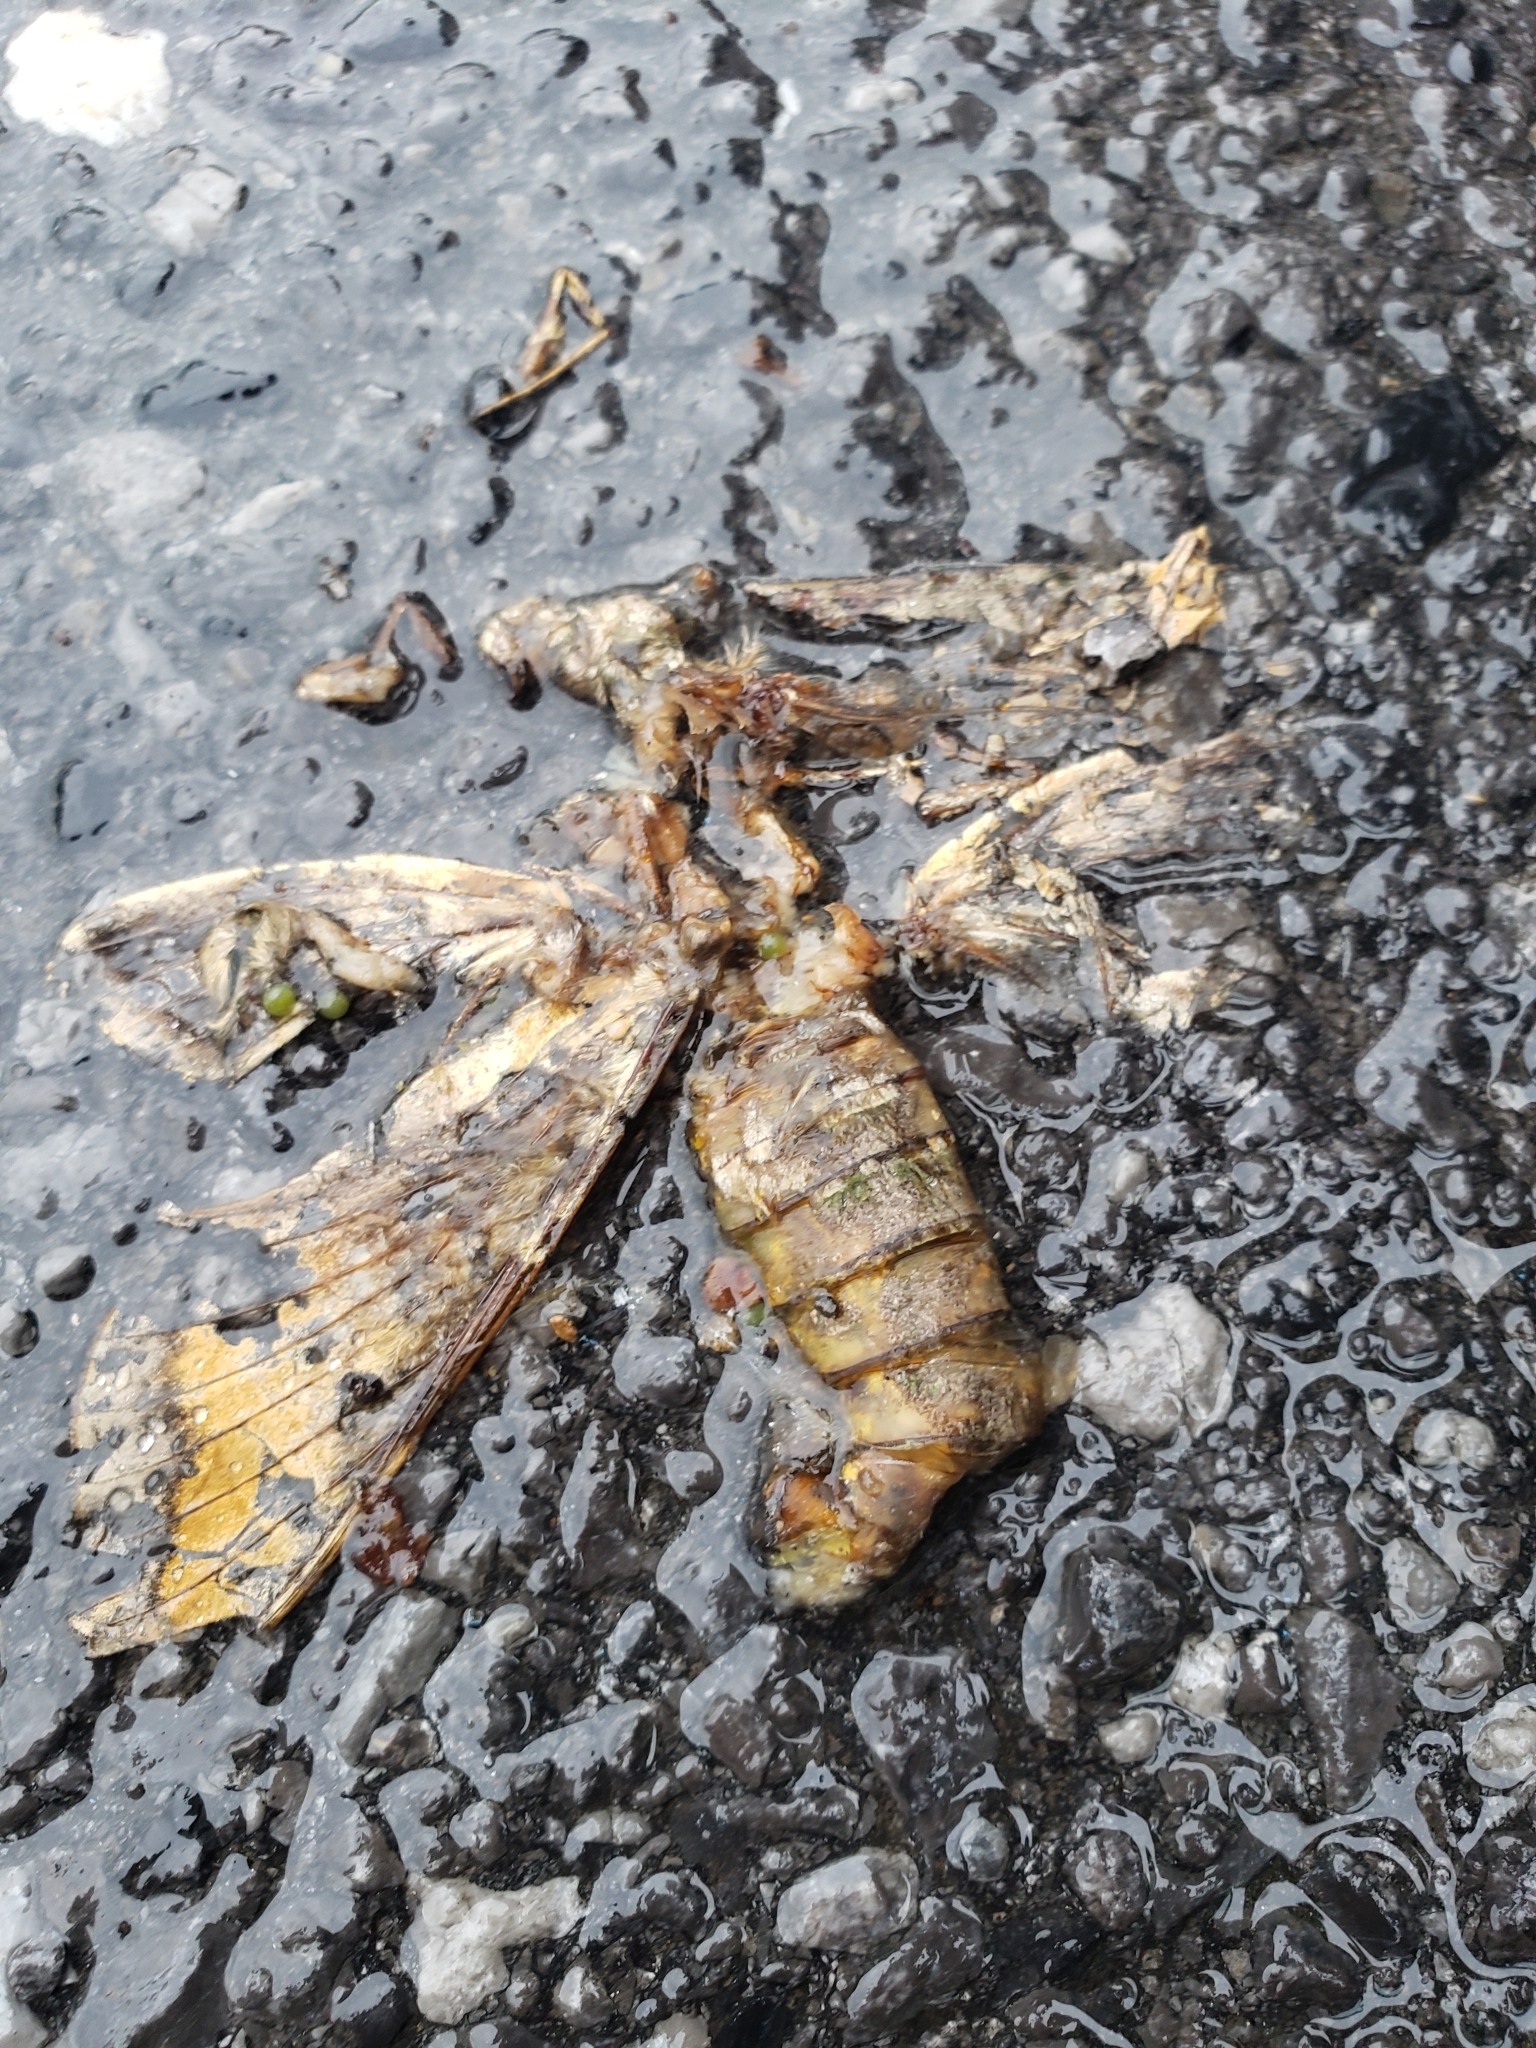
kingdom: Animalia
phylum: Arthropoda
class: Insecta
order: Lepidoptera
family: Saturniidae
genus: Eacles
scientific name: Eacles imperialis
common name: Imperial moth
